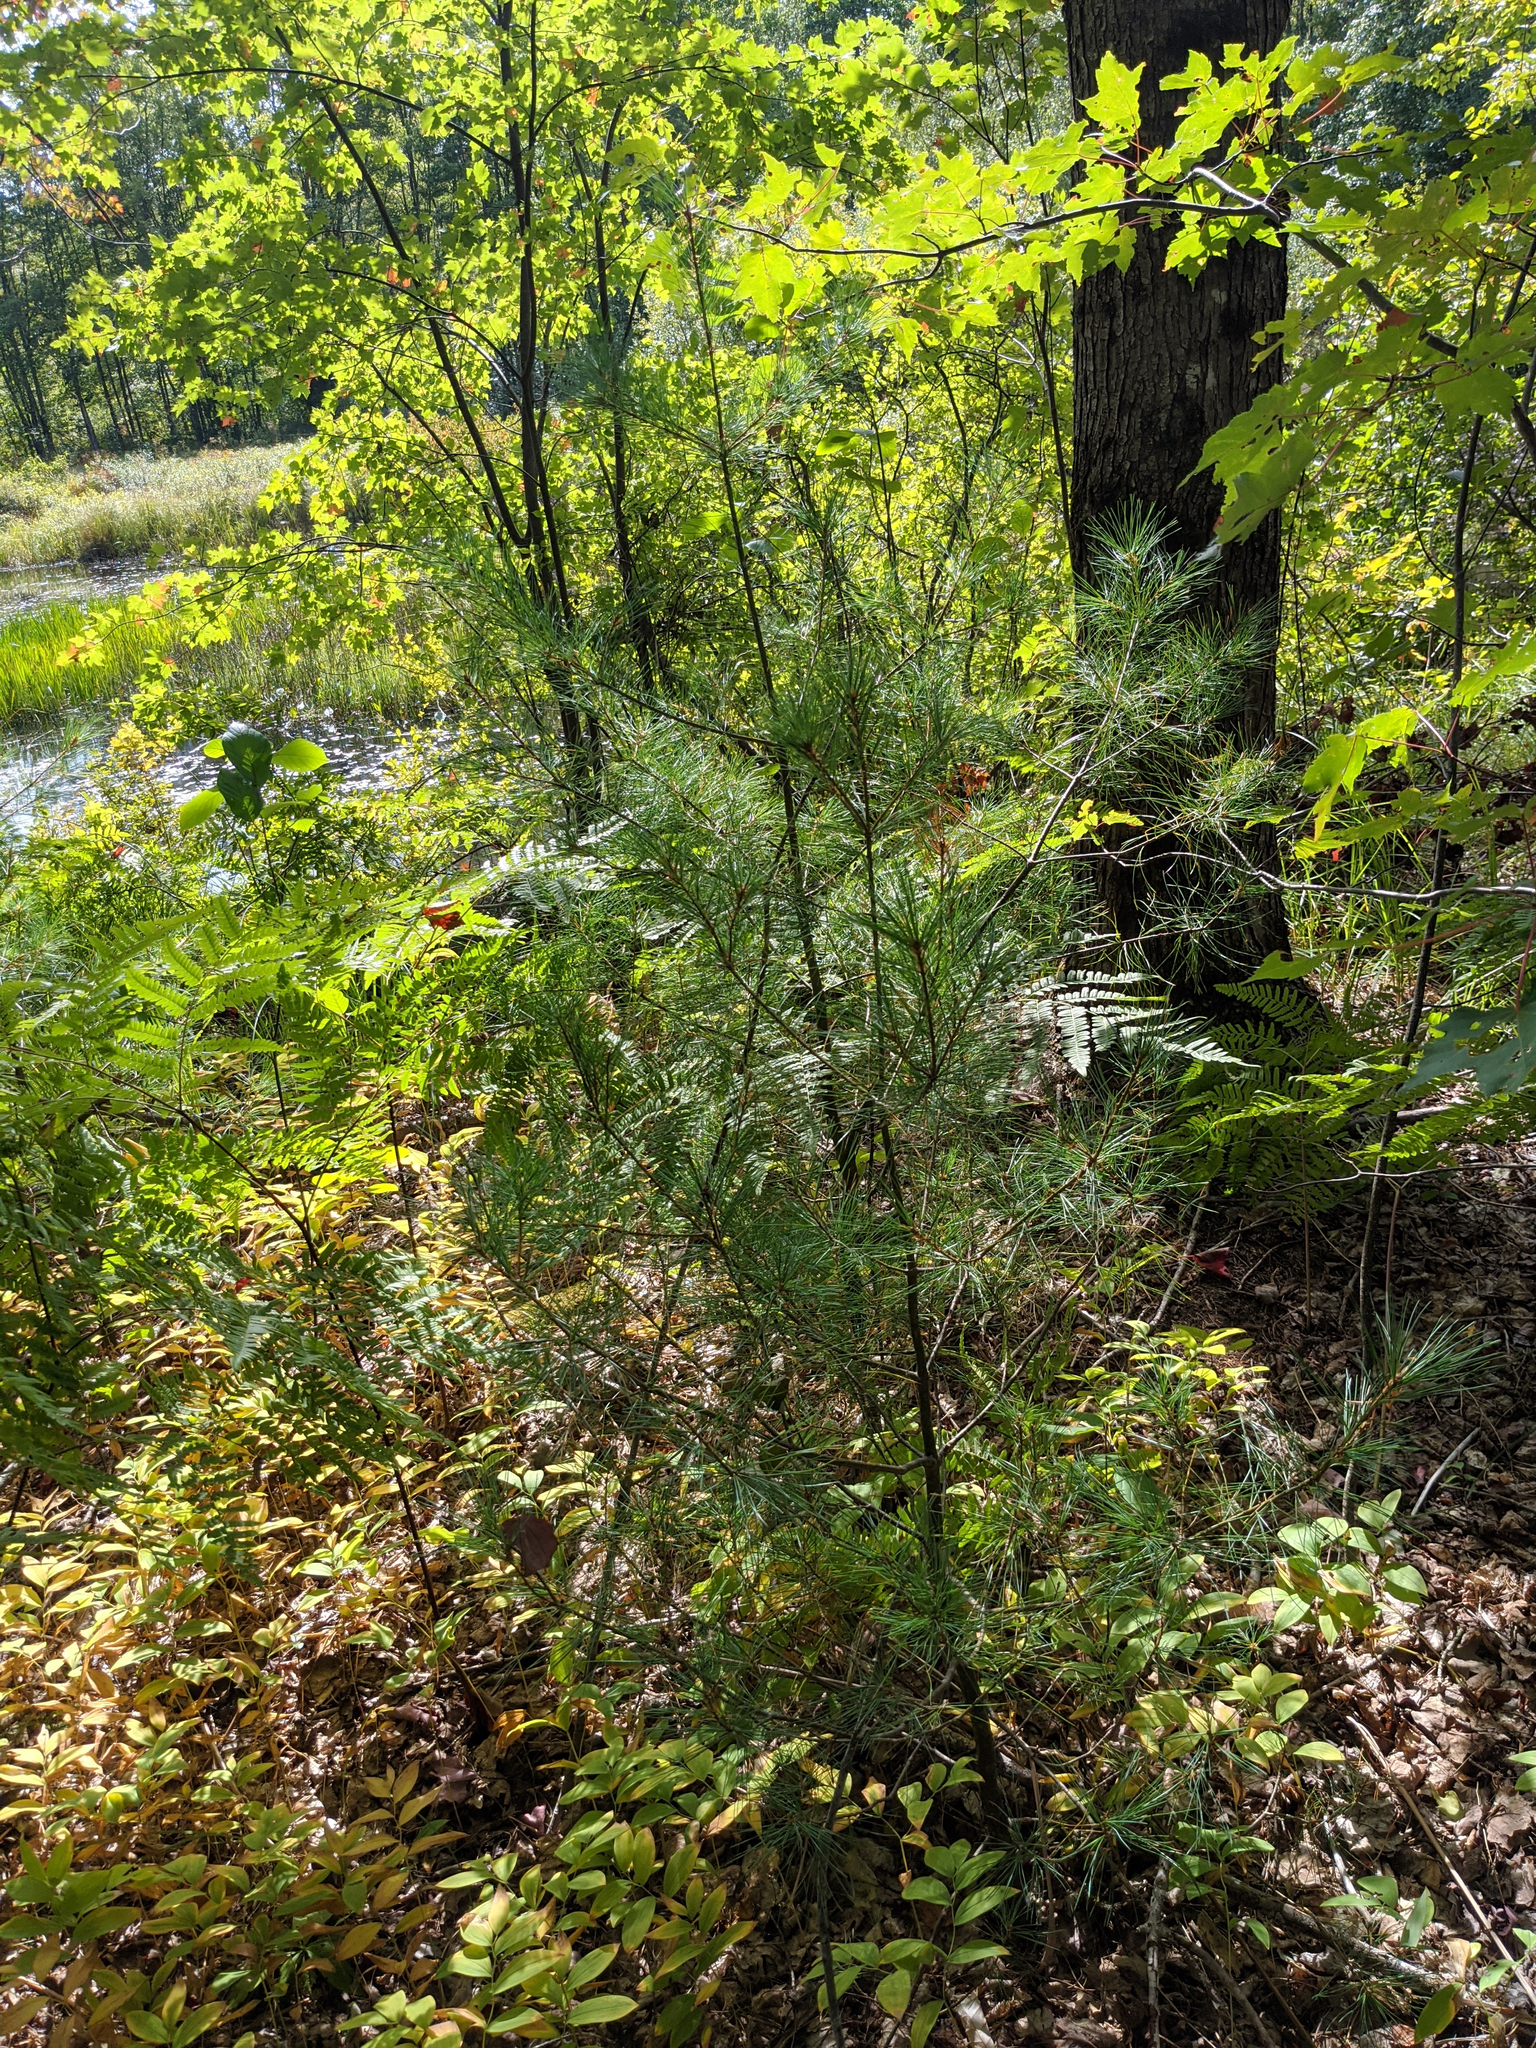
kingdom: Plantae
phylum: Tracheophyta
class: Pinopsida
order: Pinales
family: Pinaceae
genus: Pinus
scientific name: Pinus strobus
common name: Weymouth pine
